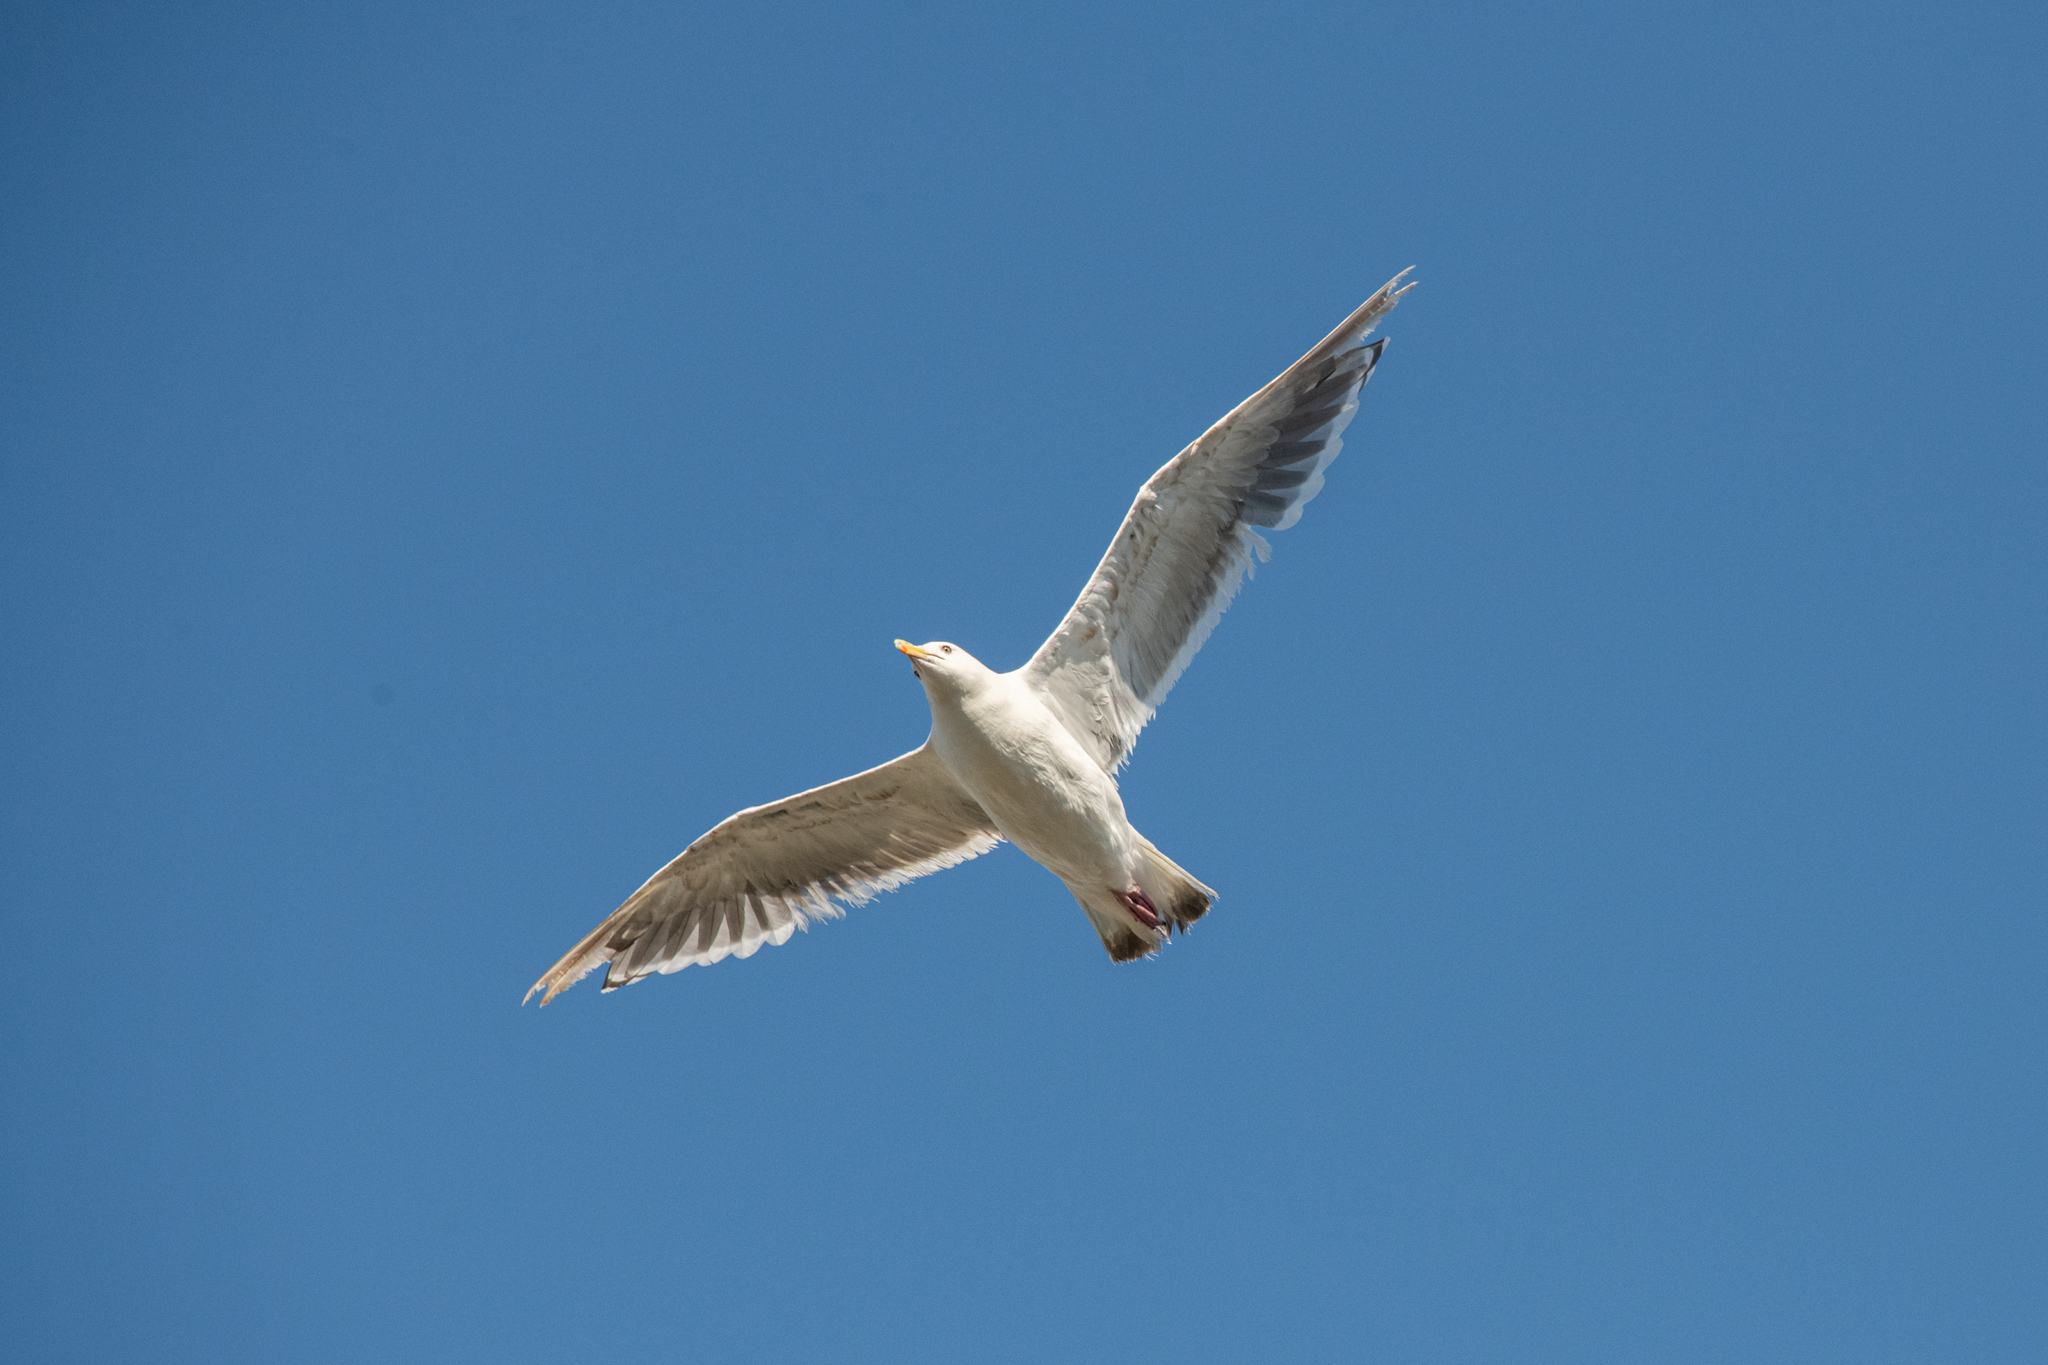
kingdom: Animalia
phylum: Chordata
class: Aves
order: Charadriiformes
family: Laridae
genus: Larus
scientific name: Larus schistisagus
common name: Slaty-backed gull
